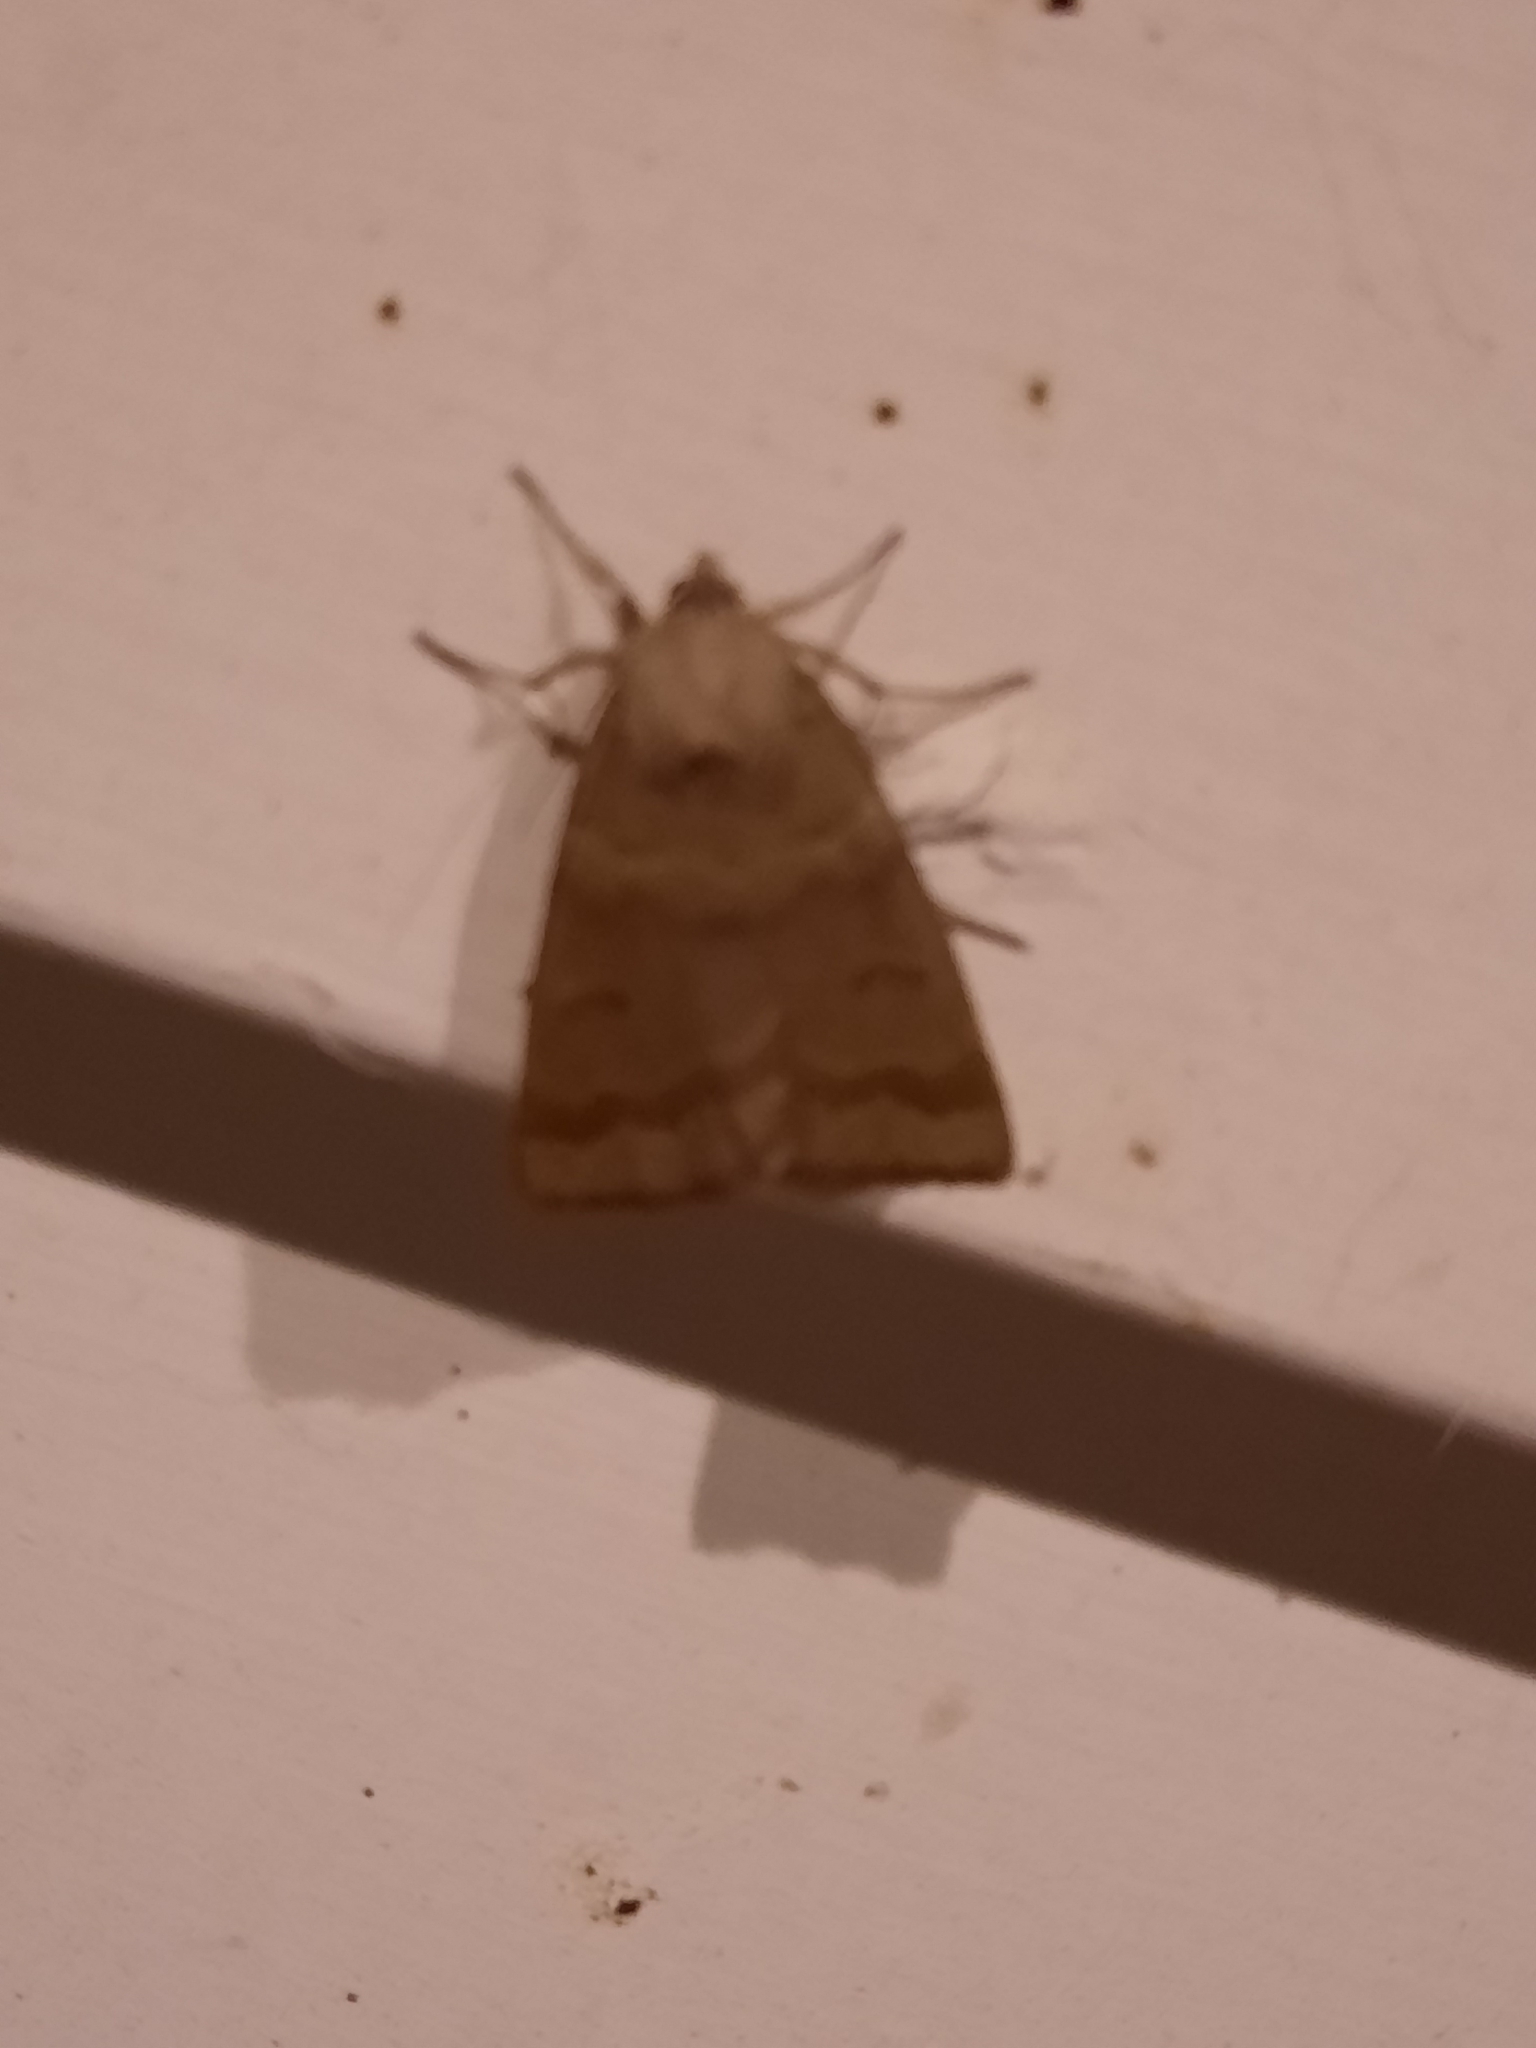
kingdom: Animalia
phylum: Arthropoda
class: Insecta
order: Lepidoptera
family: Erebidae
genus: Phoberia
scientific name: Phoberia atomaris
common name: Common oak moth
